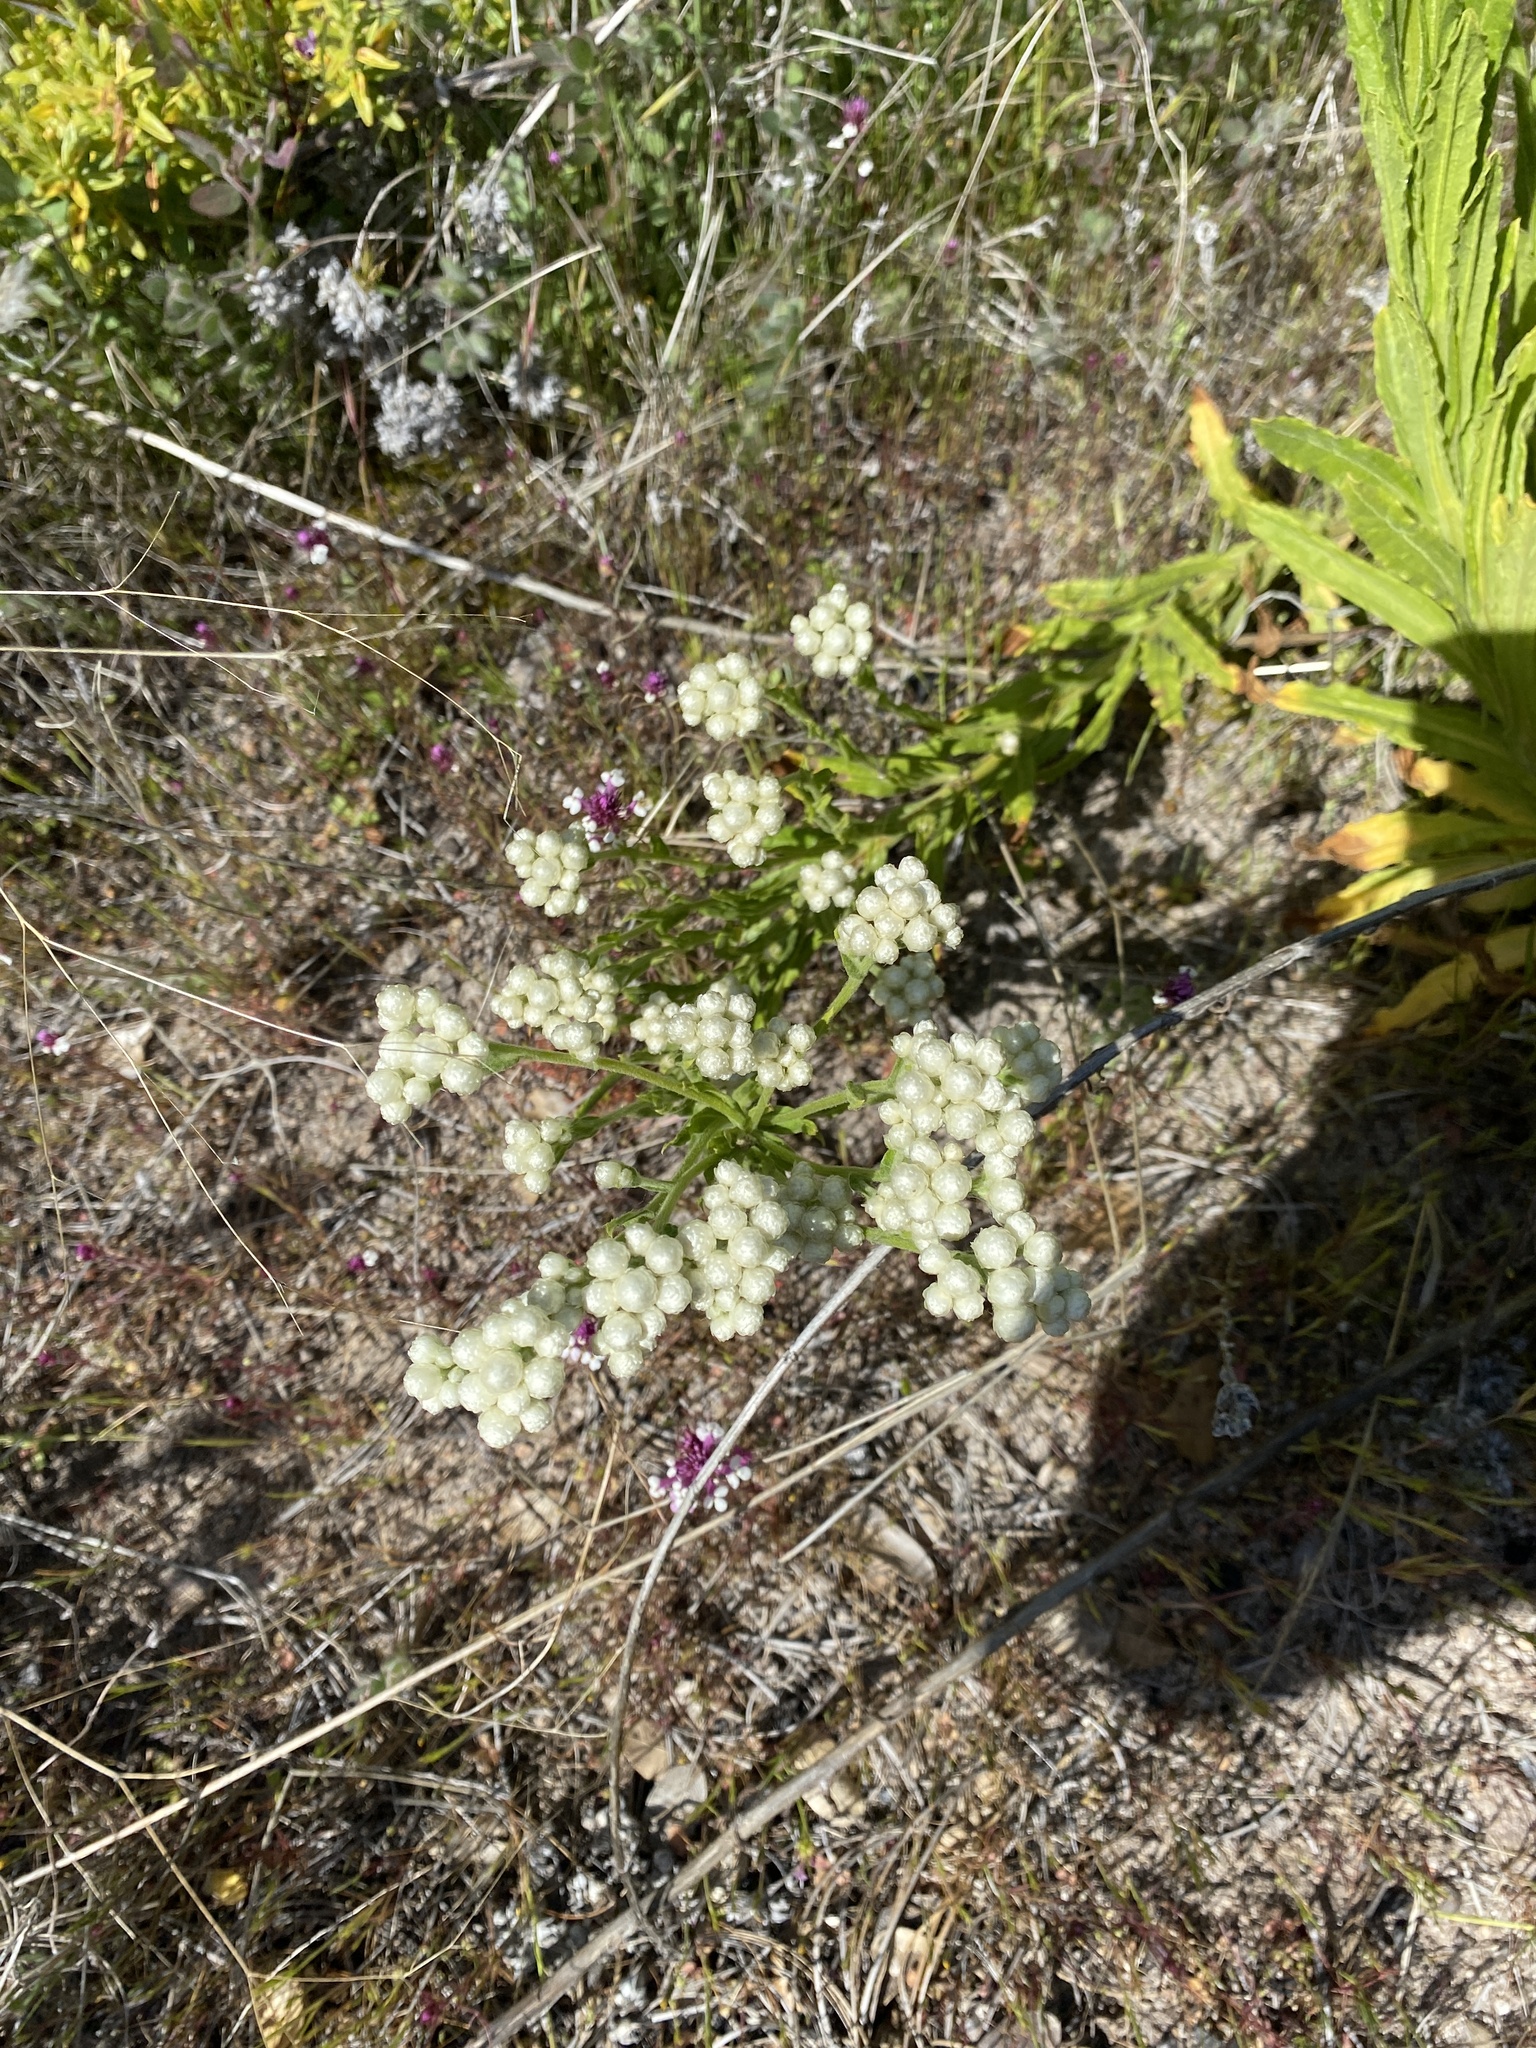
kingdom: Plantae
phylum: Tracheophyta
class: Magnoliopsida
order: Asterales
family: Asteraceae
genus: Pseudognaphalium
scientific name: Pseudognaphalium californicum
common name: California rabbit-tobacco
